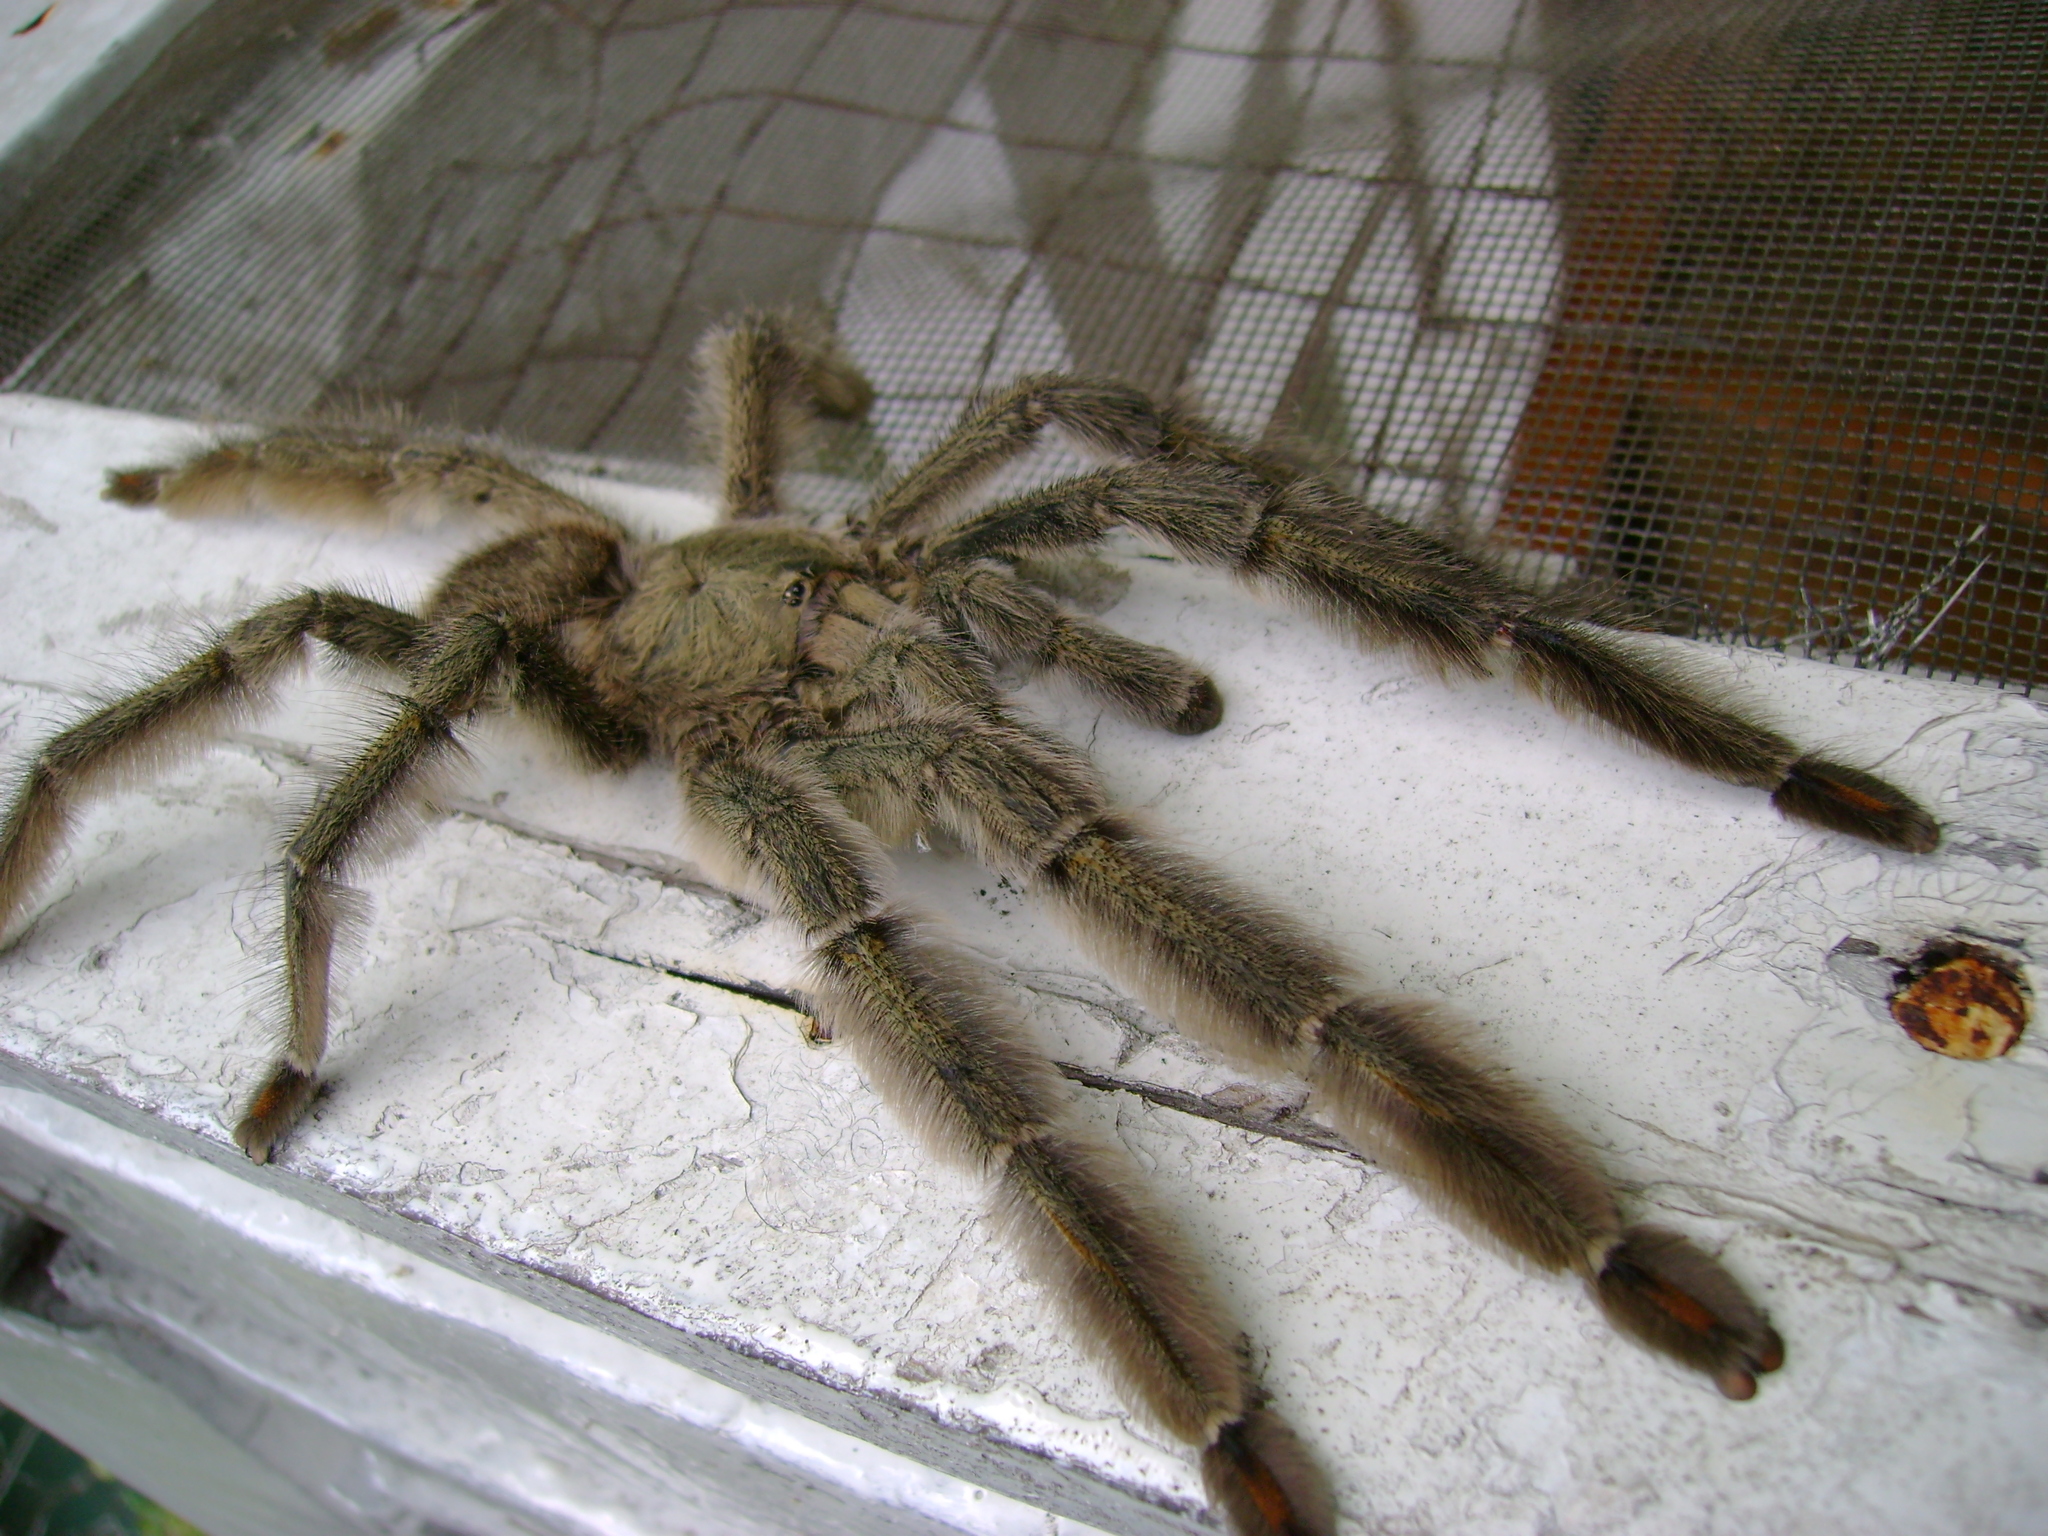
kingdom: Animalia
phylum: Arthropoda
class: Arachnida
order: Araneae
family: Theraphosidae
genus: Psalmopoeus
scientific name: Psalmopoeus cambridgei
